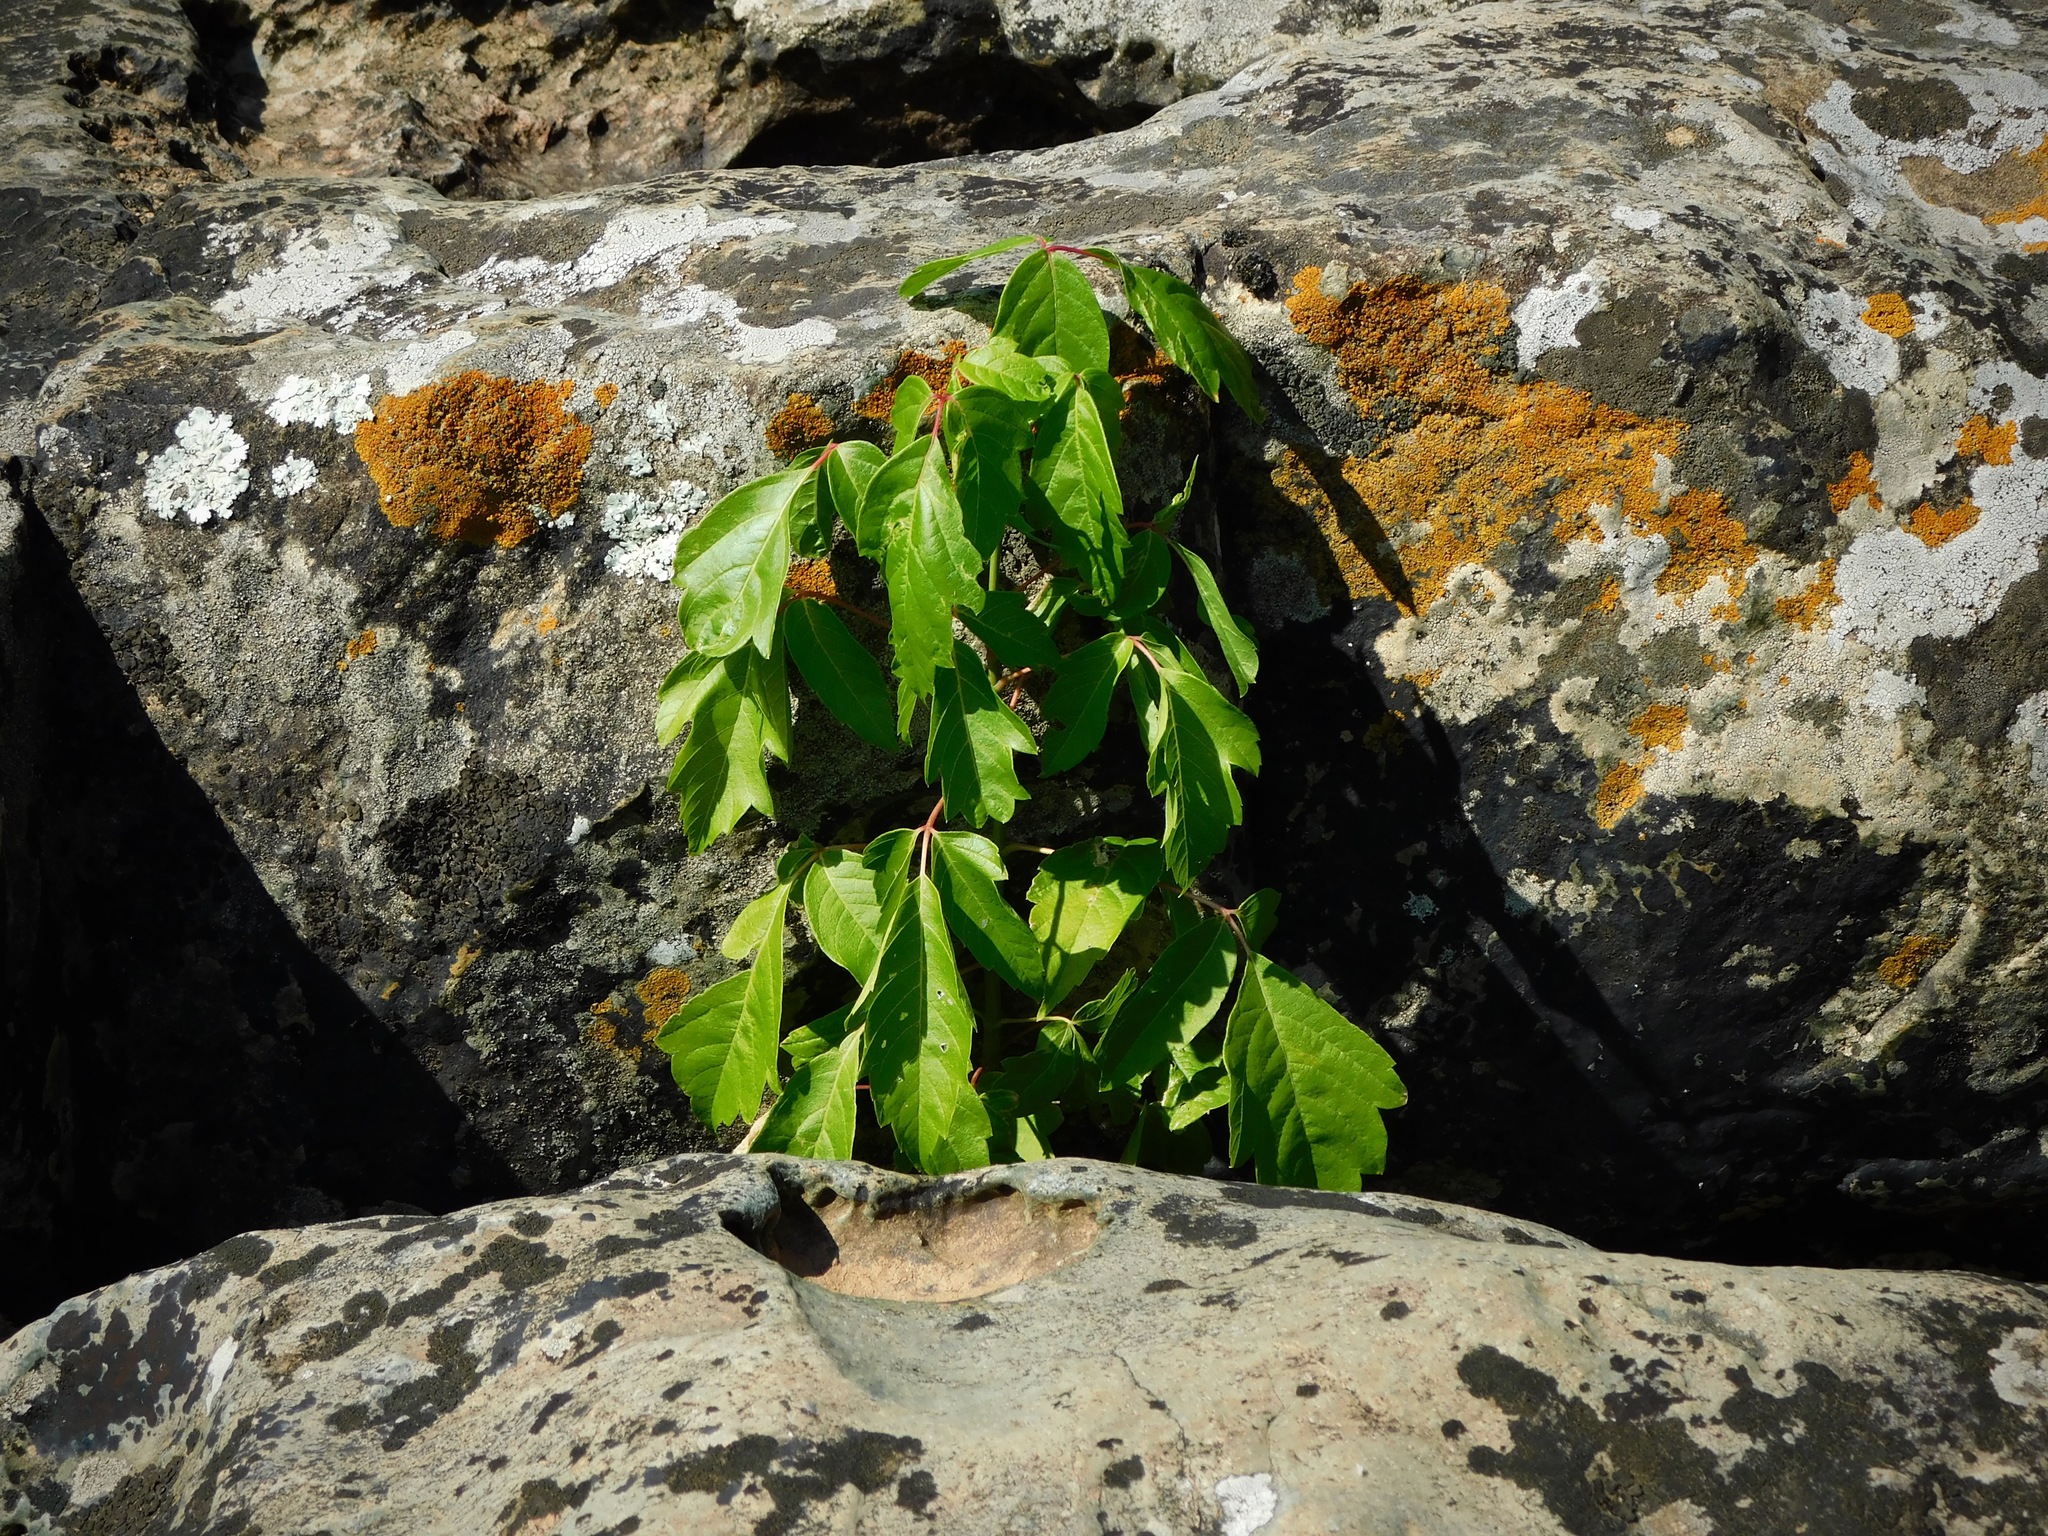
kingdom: Plantae
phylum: Tracheophyta
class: Magnoliopsida
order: Sapindales
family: Sapindaceae
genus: Acer
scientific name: Acer negundo
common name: Ashleaf maple
